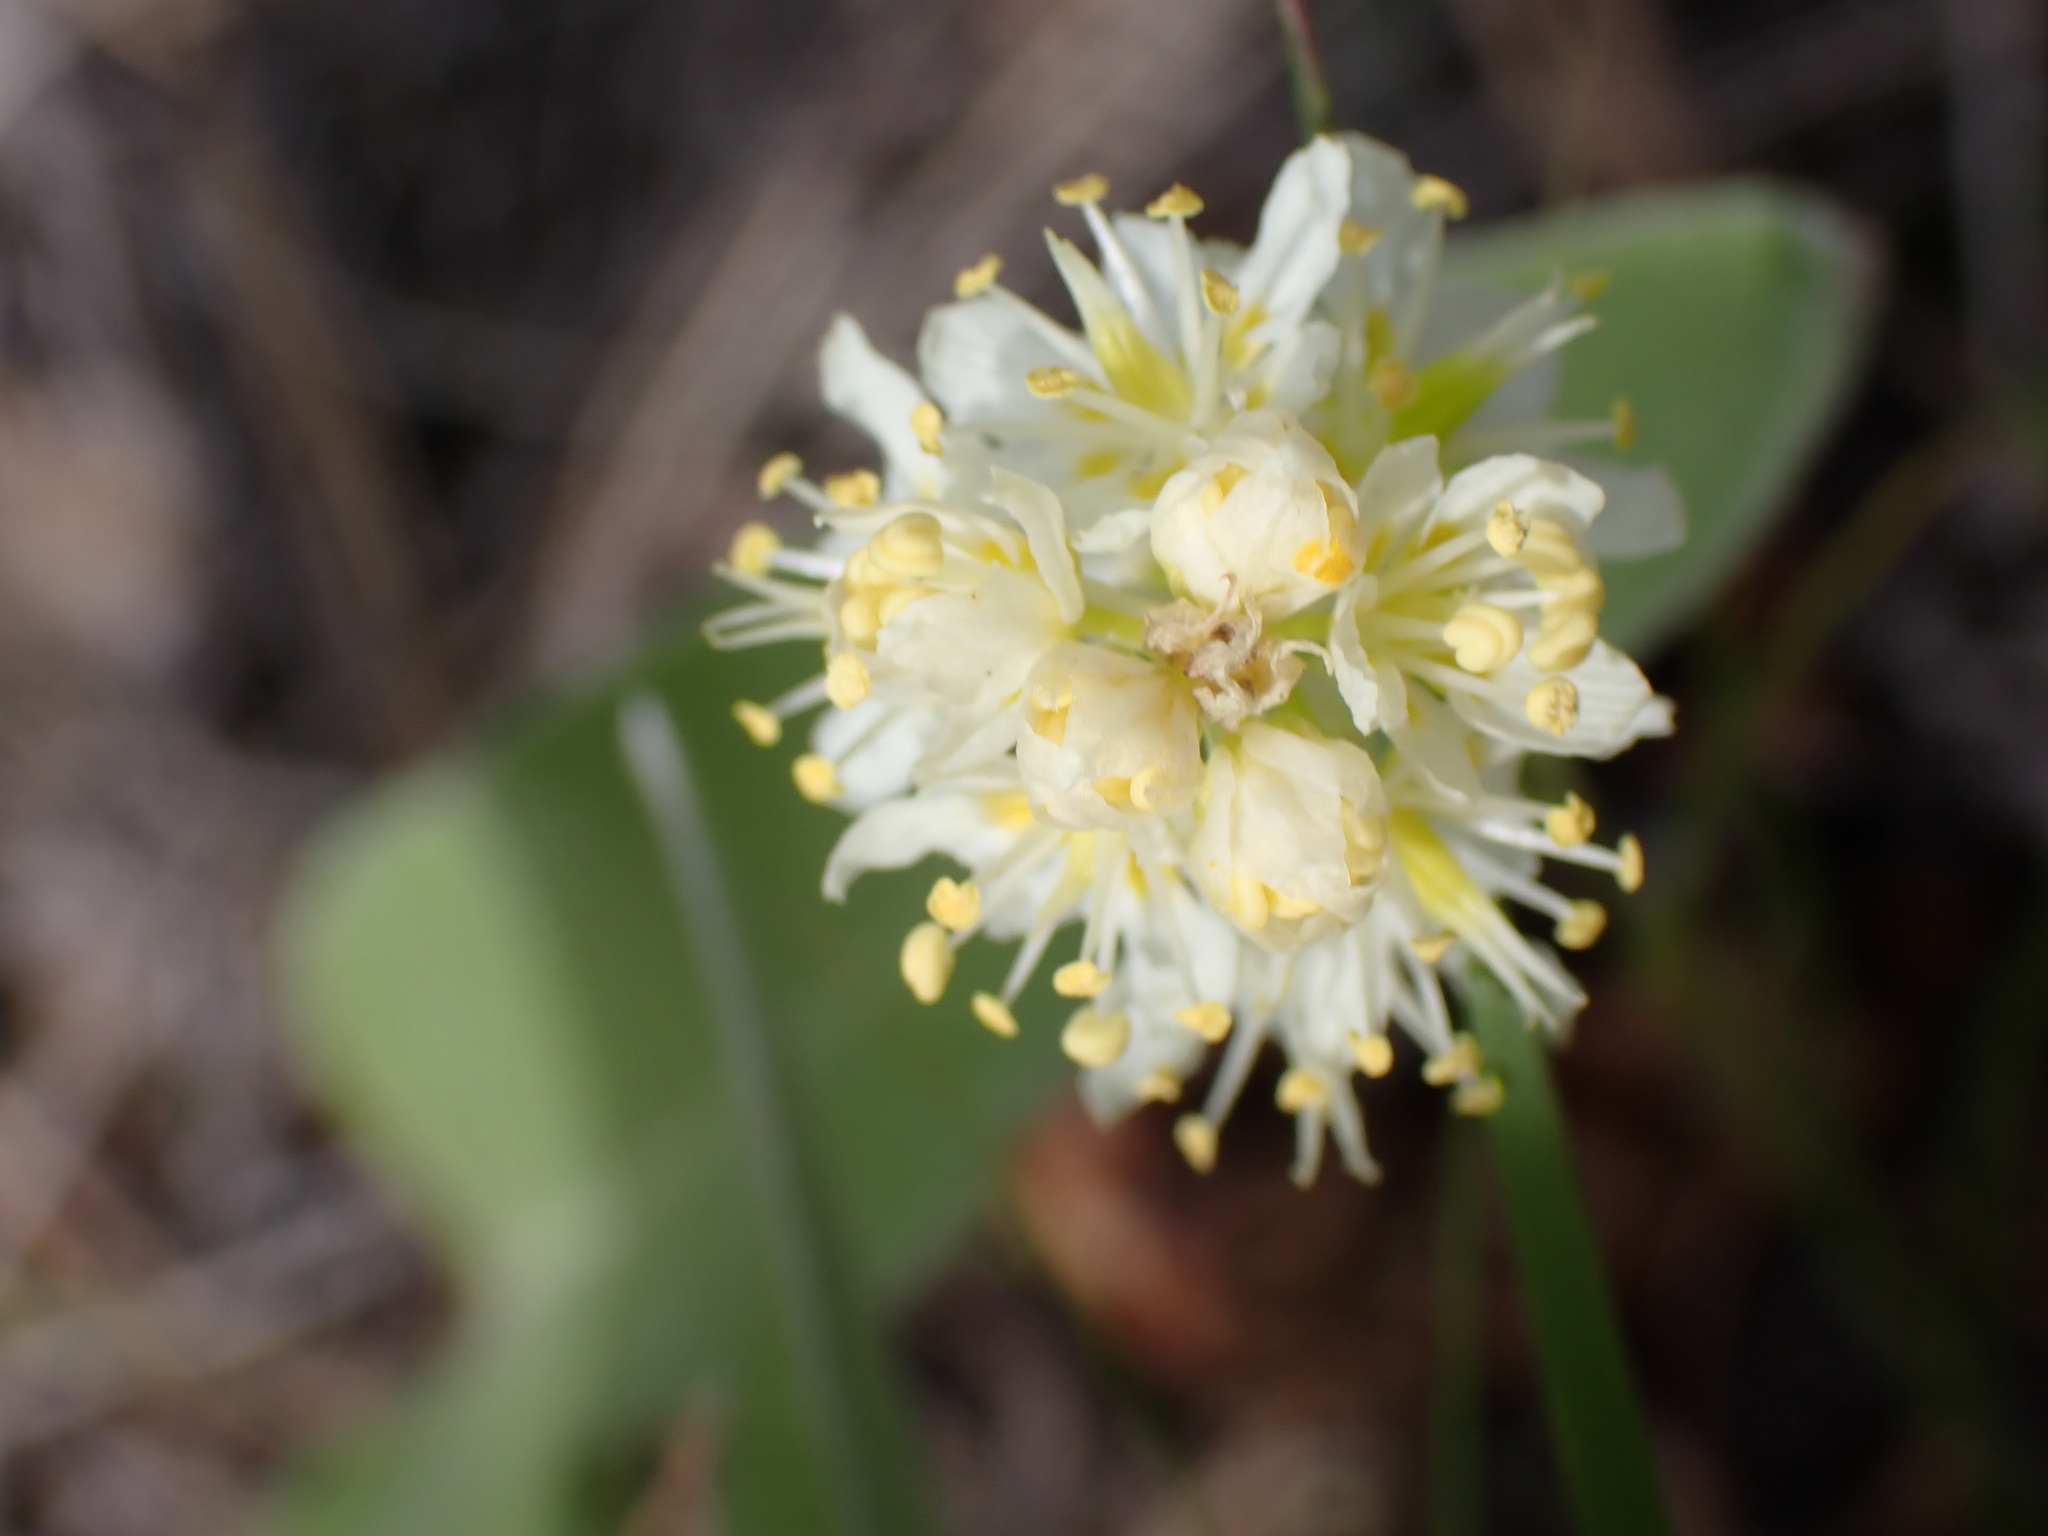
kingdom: Plantae
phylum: Tracheophyta
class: Liliopsida
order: Liliales
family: Melanthiaceae
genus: Toxicoscordion
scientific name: Toxicoscordion venenosum
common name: Meadow death camas
